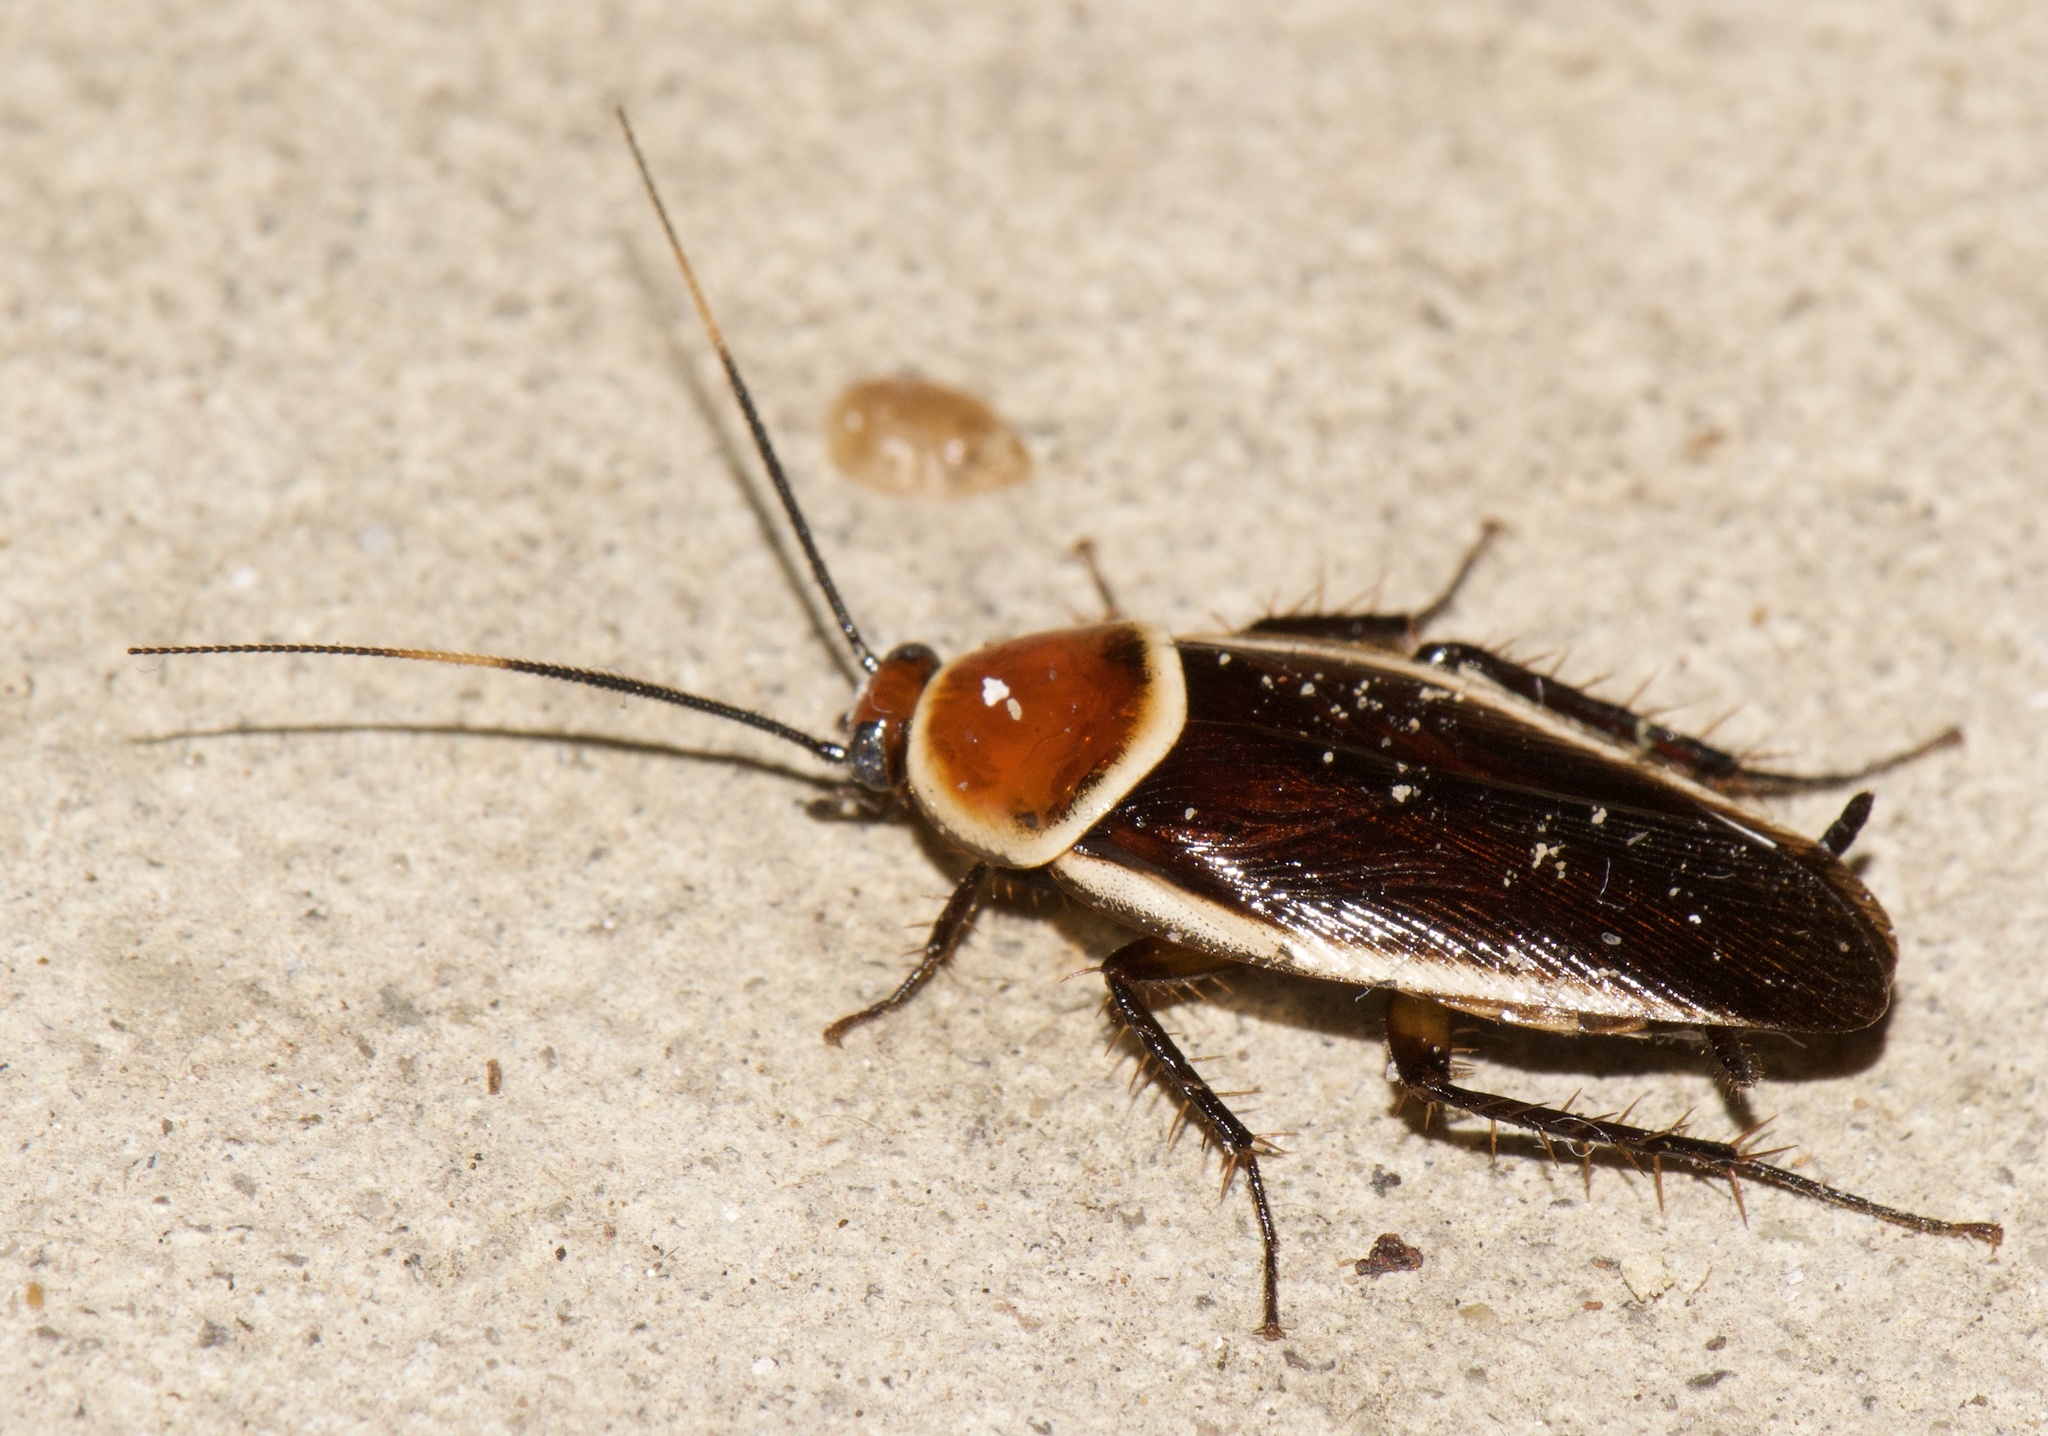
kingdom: Animalia
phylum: Arthropoda
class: Insecta
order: Blattodea
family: Ectobiidae
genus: Pseudomops
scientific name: Pseudomops septentrionalis
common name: Pale-bordered field cockroach
